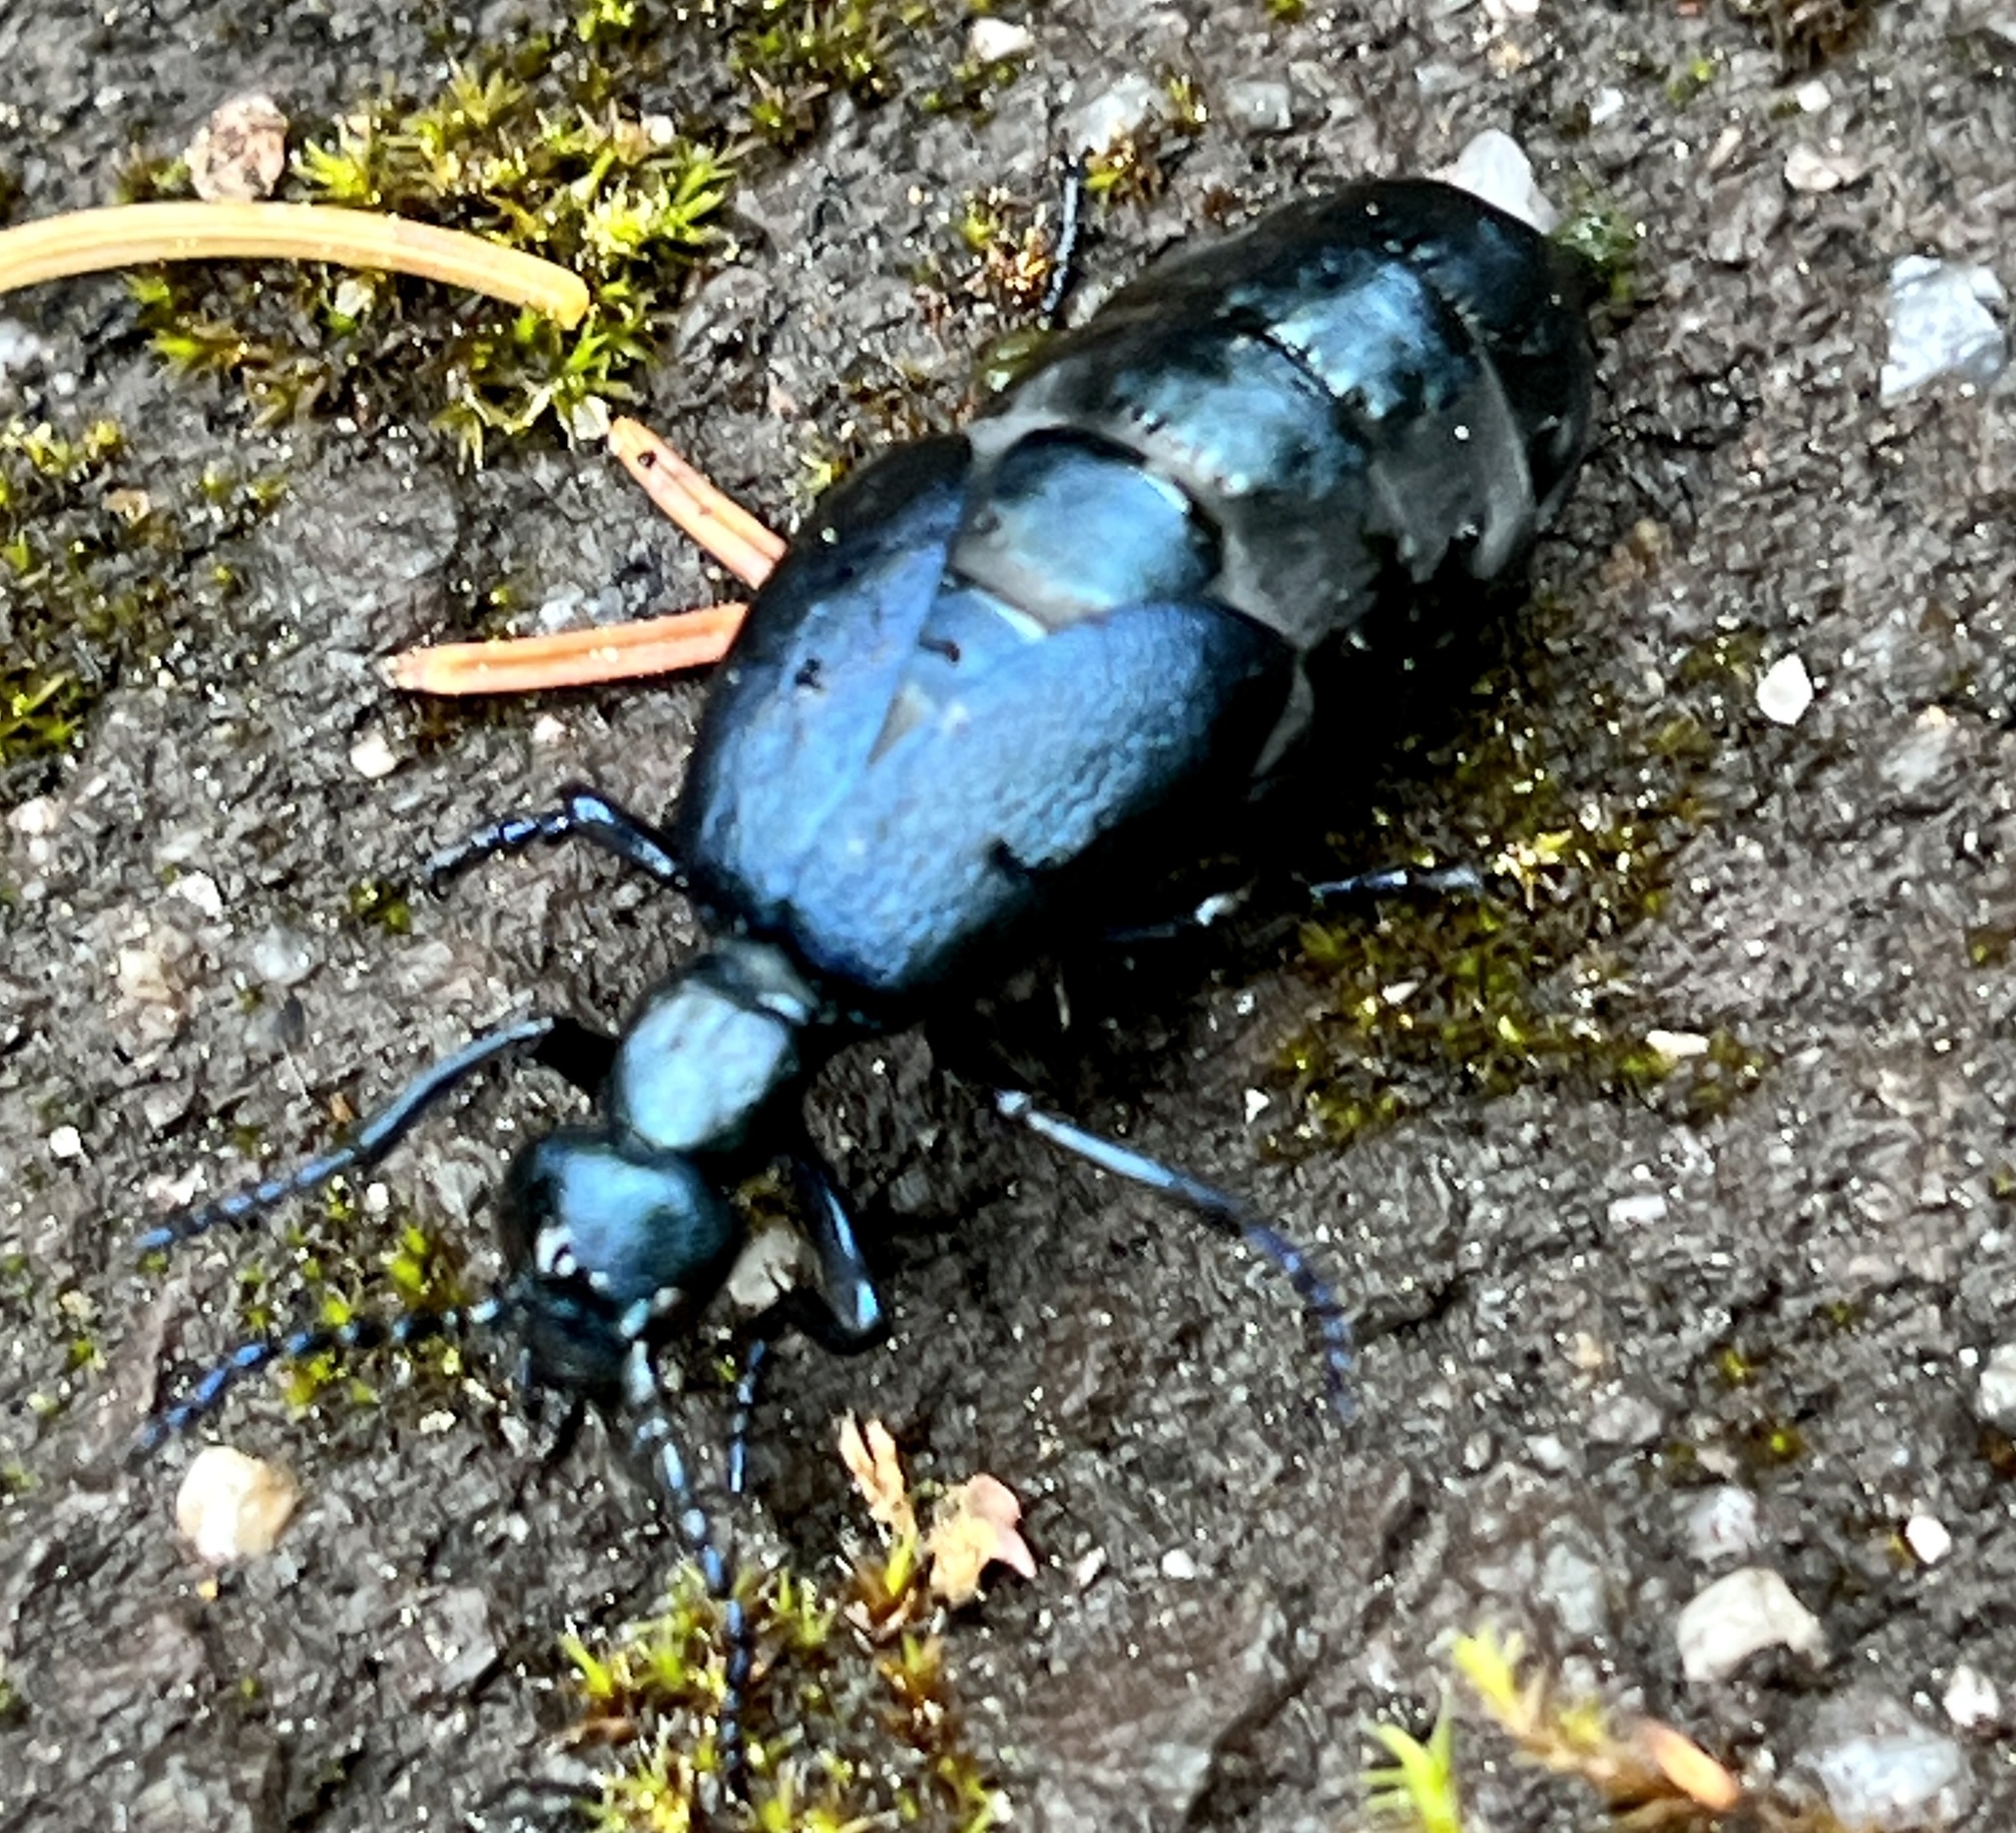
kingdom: Animalia
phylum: Arthropoda
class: Insecta
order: Coleoptera
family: Meloidae
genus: Meloe
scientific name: Meloe violaceus
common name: Violet oil-beetle
